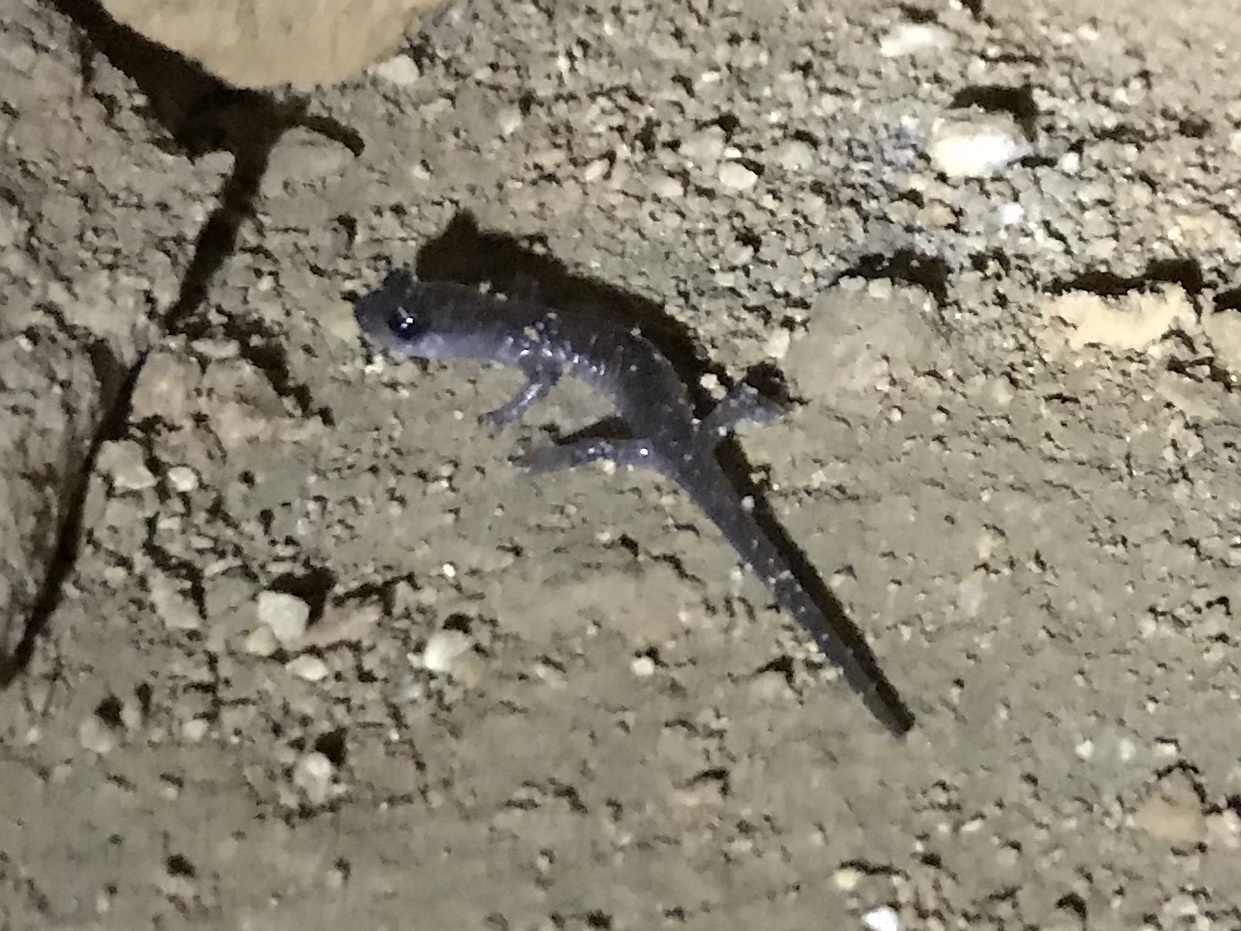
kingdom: Animalia
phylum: Chordata
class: Amphibia
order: Caudata
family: Plethodontidae
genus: Plethodon
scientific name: Plethodon glutinosus
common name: Northern slimy salamander
